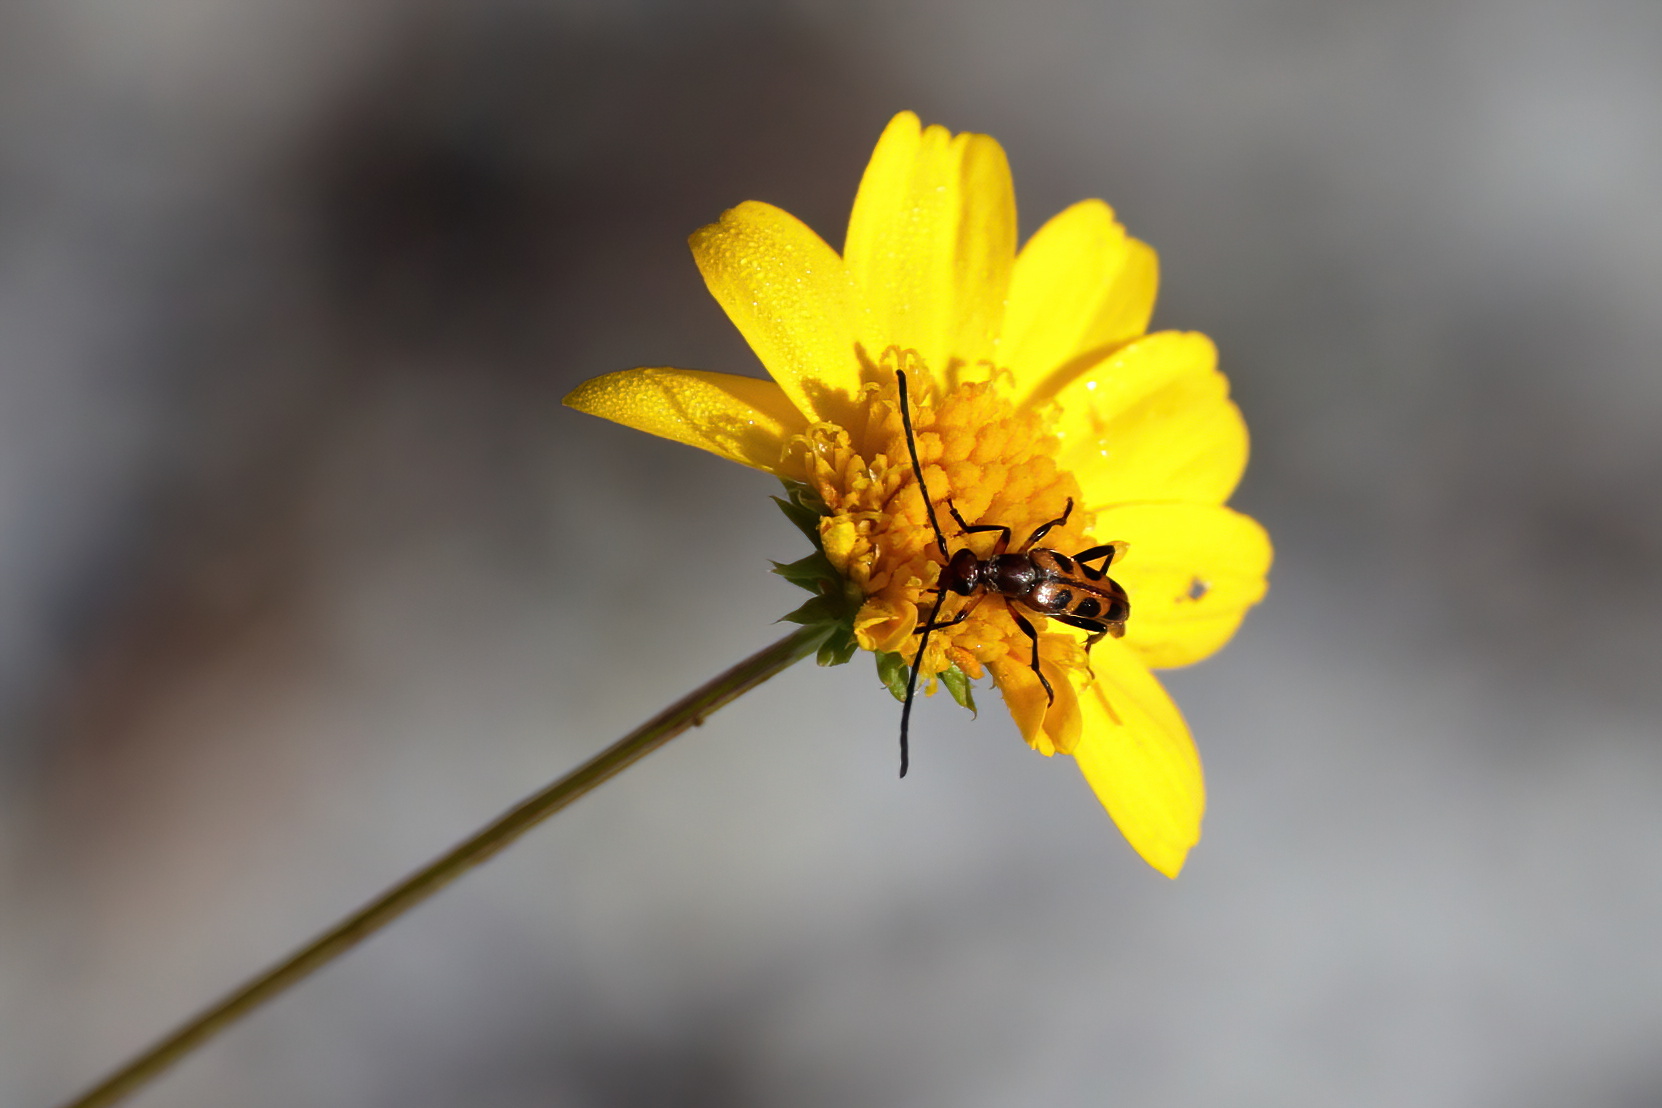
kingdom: Animalia
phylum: Arthropoda
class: Insecta
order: Coleoptera
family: Cerambycidae
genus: Strangalia
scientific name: Strangalia sexnotata
